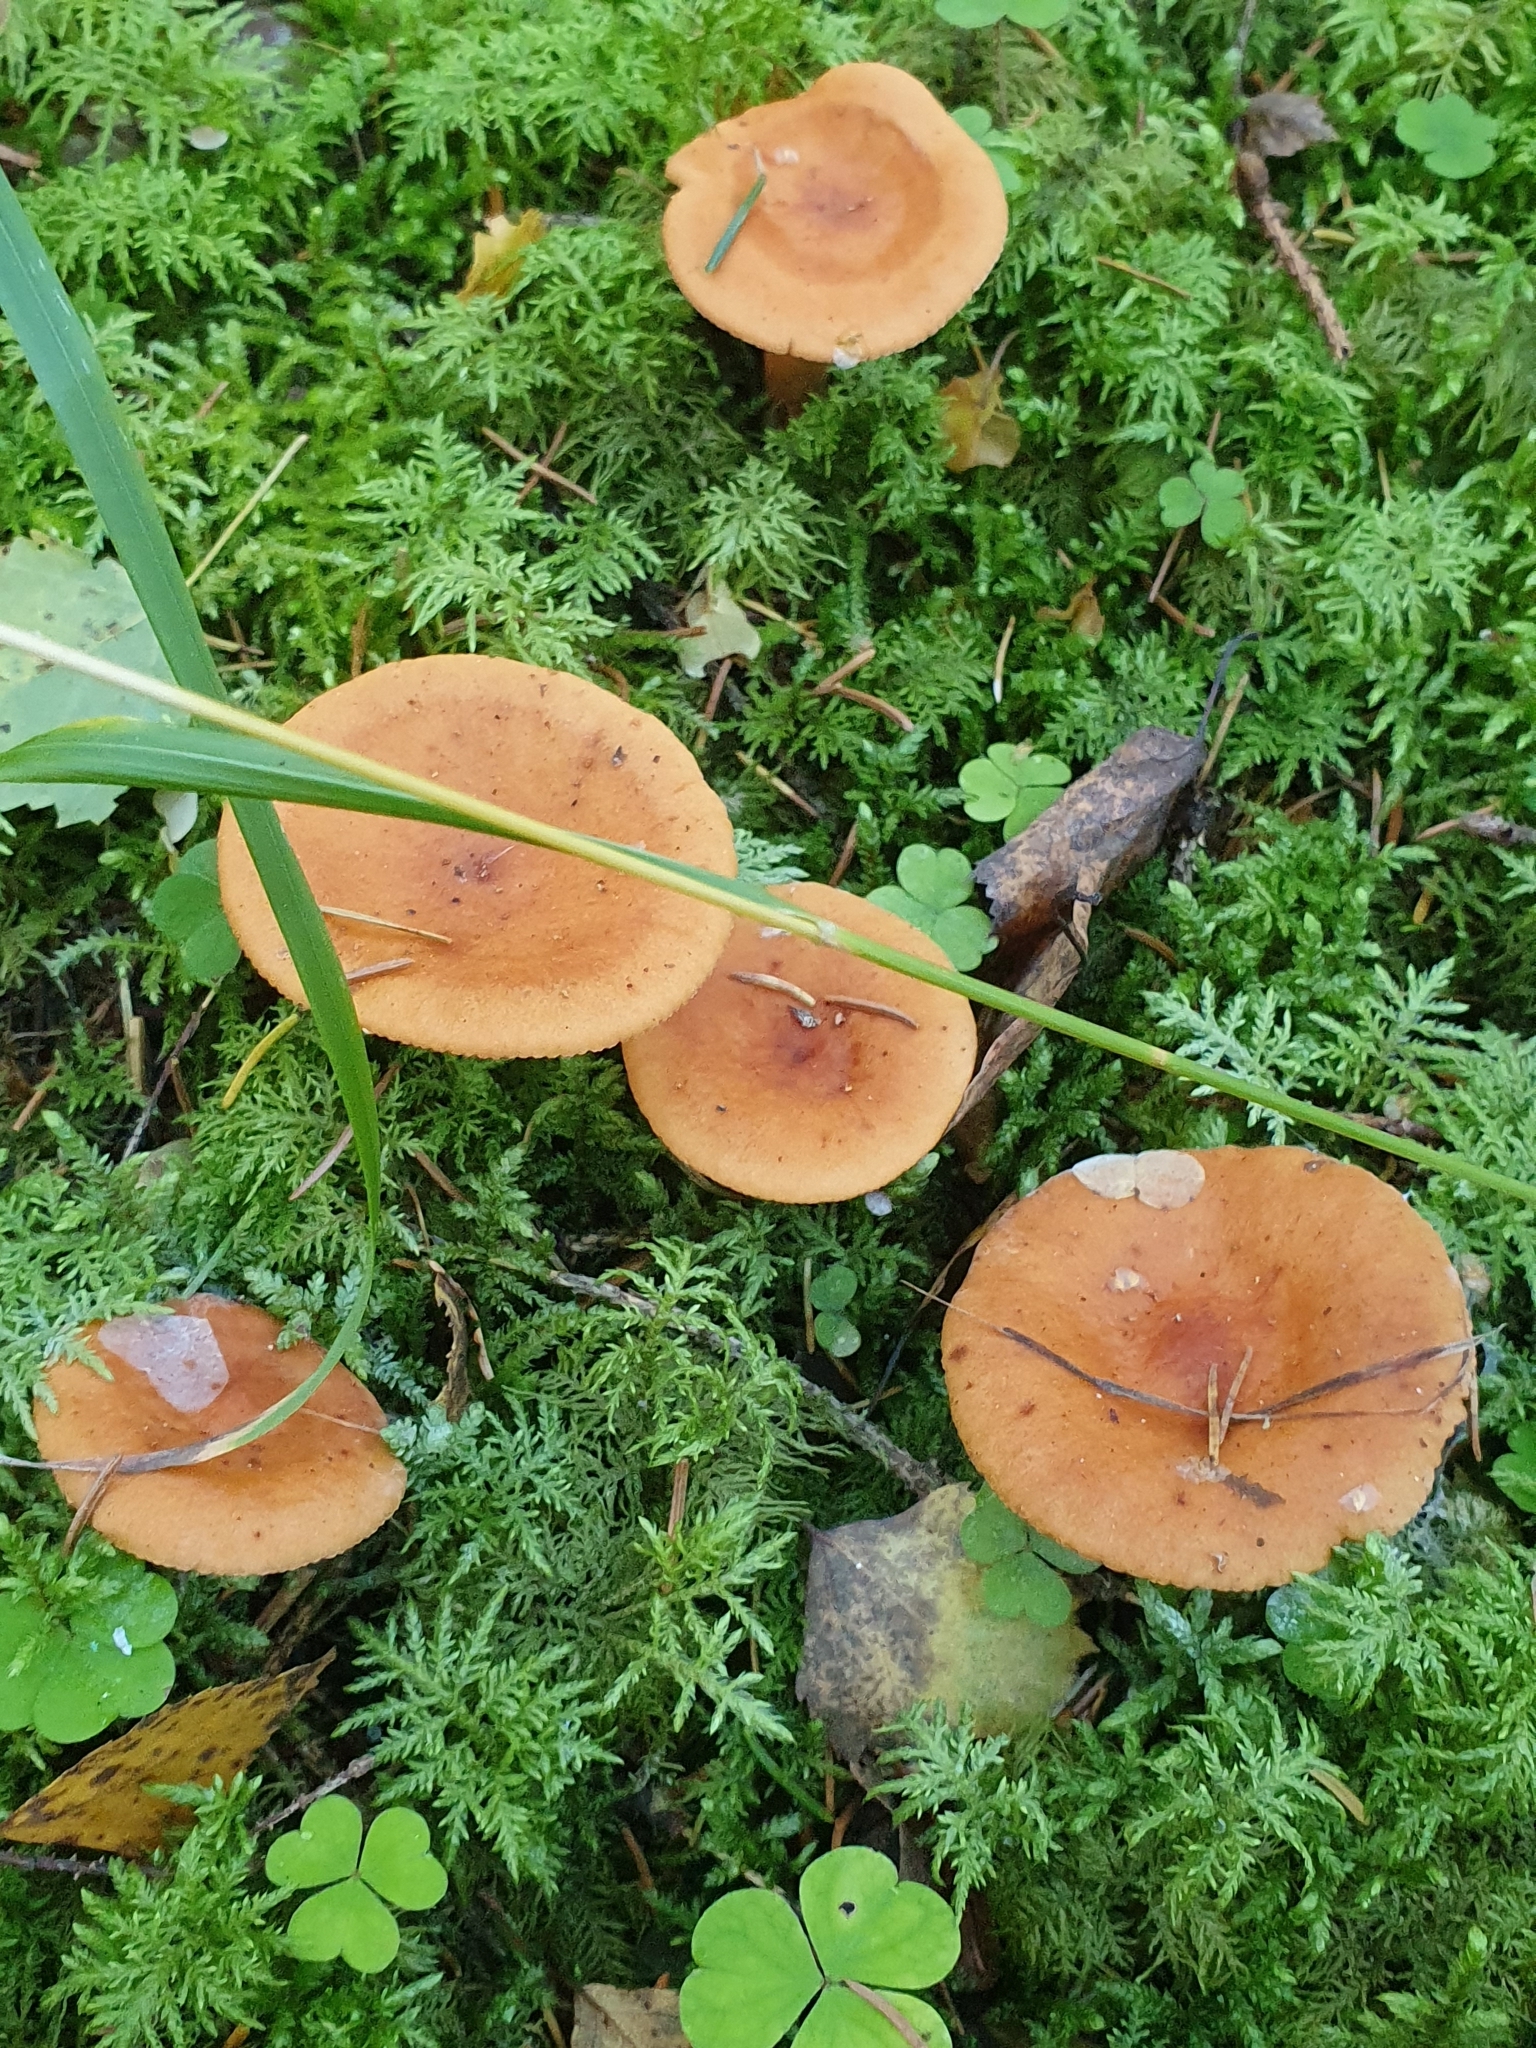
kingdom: Fungi
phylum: Basidiomycota
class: Agaricomycetes
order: Russulales
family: Russulaceae
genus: Lactarius
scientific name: Lactarius aurantiacus
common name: Orange milkcap
